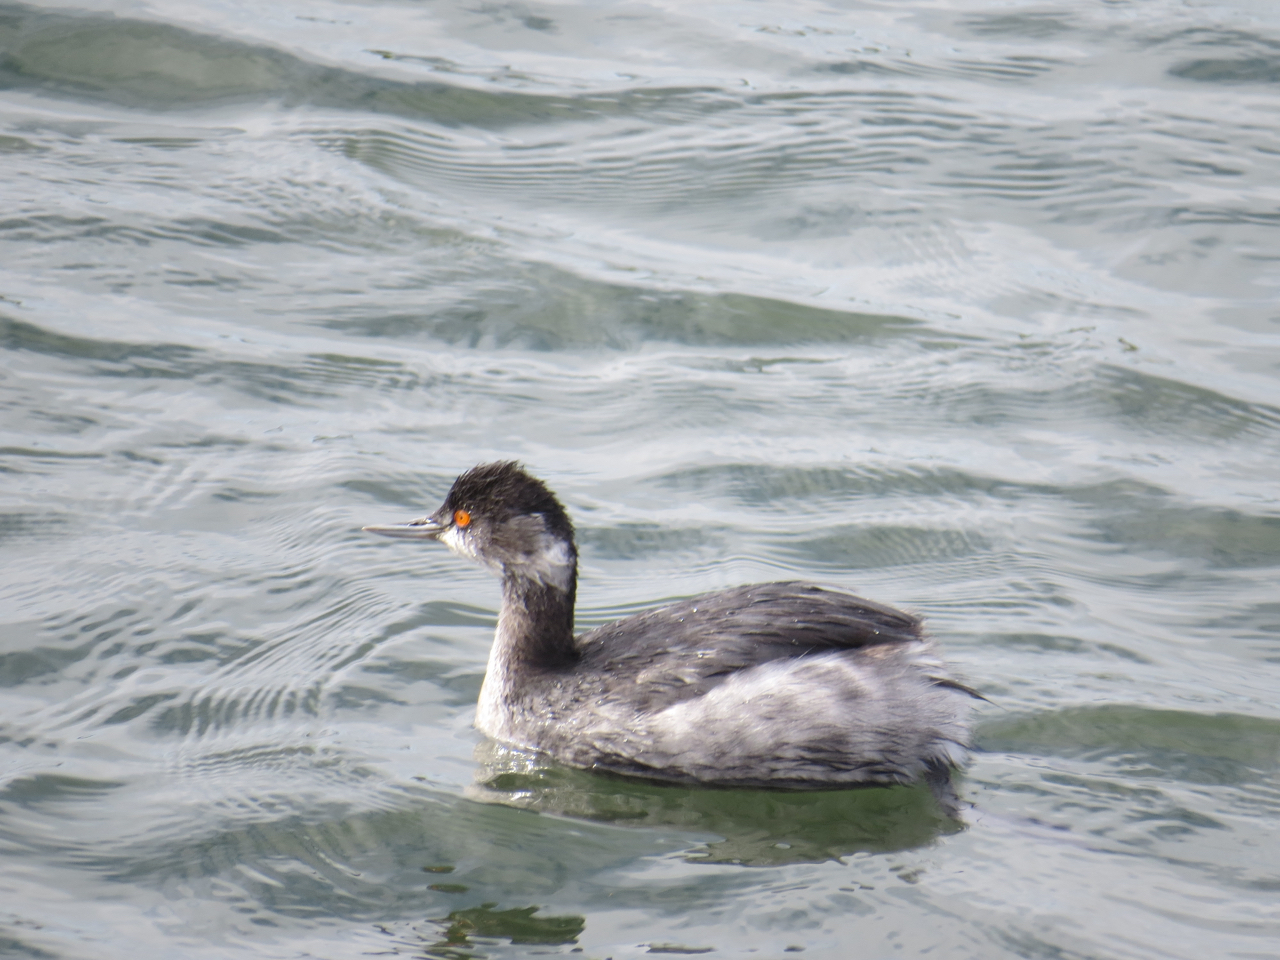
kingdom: Animalia
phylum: Chordata
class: Aves
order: Podicipediformes
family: Podicipedidae
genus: Podiceps
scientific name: Podiceps nigricollis
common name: Black-necked grebe
